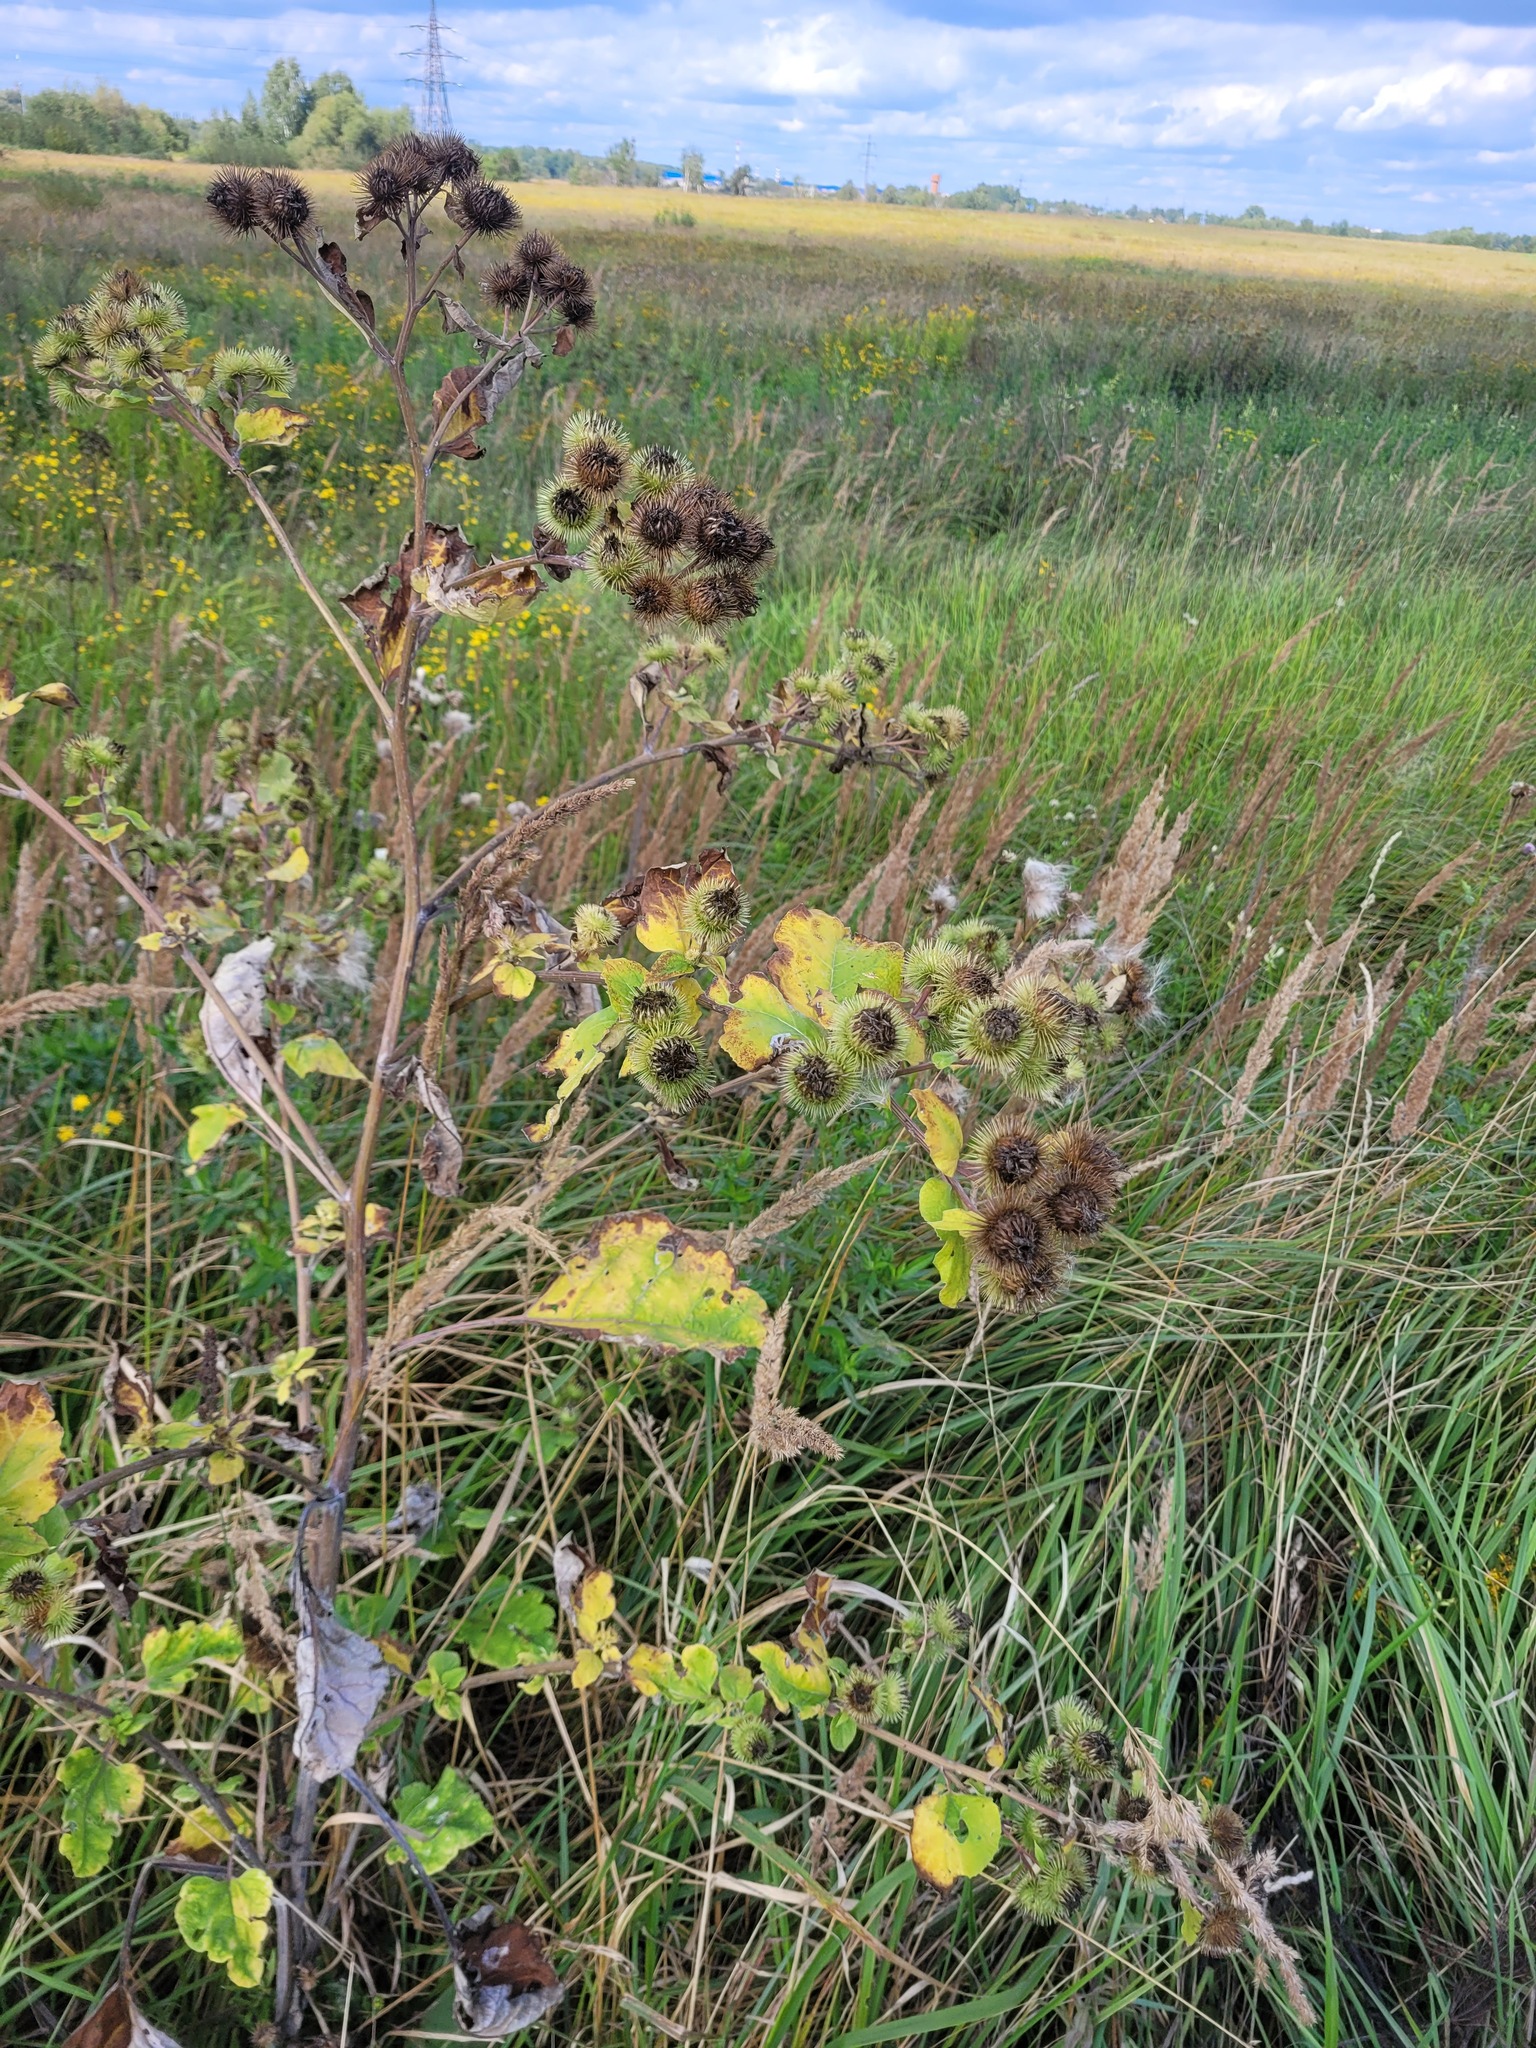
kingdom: Plantae
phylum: Tracheophyta
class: Magnoliopsida
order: Asterales
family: Asteraceae
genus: Arctium
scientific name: Arctium lappa
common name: Greater burdock
